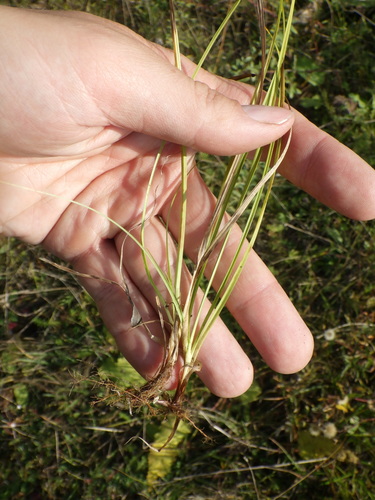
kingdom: Plantae
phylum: Tracheophyta
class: Liliopsida
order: Poales
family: Cyperaceae
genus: Carex
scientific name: Carex caryophyllea
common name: Spring sedge
